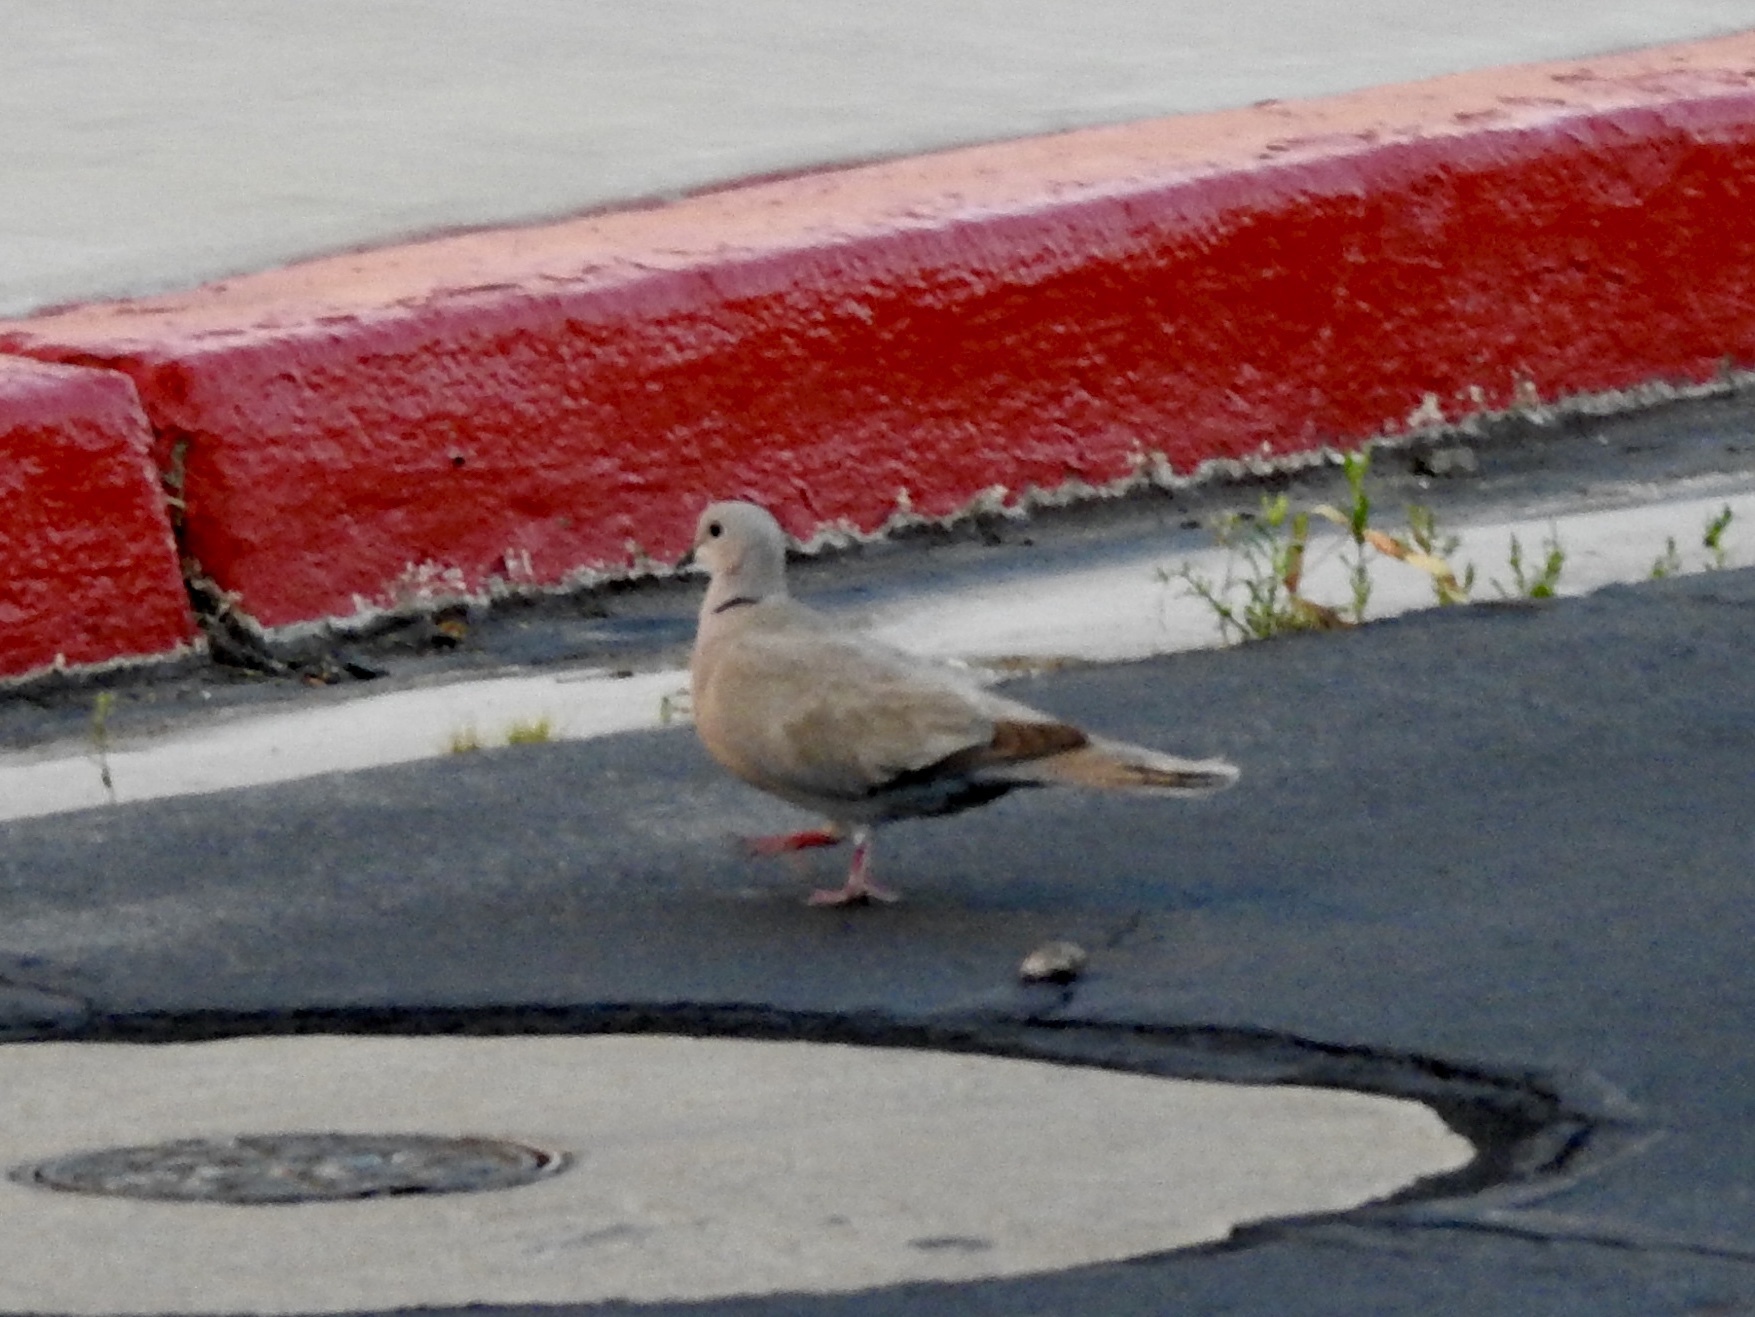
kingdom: Animalia
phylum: Chordata
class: Aves
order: Columbiformes
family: Columbidae
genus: Streptopelia
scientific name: Streptopelia decaocto
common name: Eurasian collared dove
